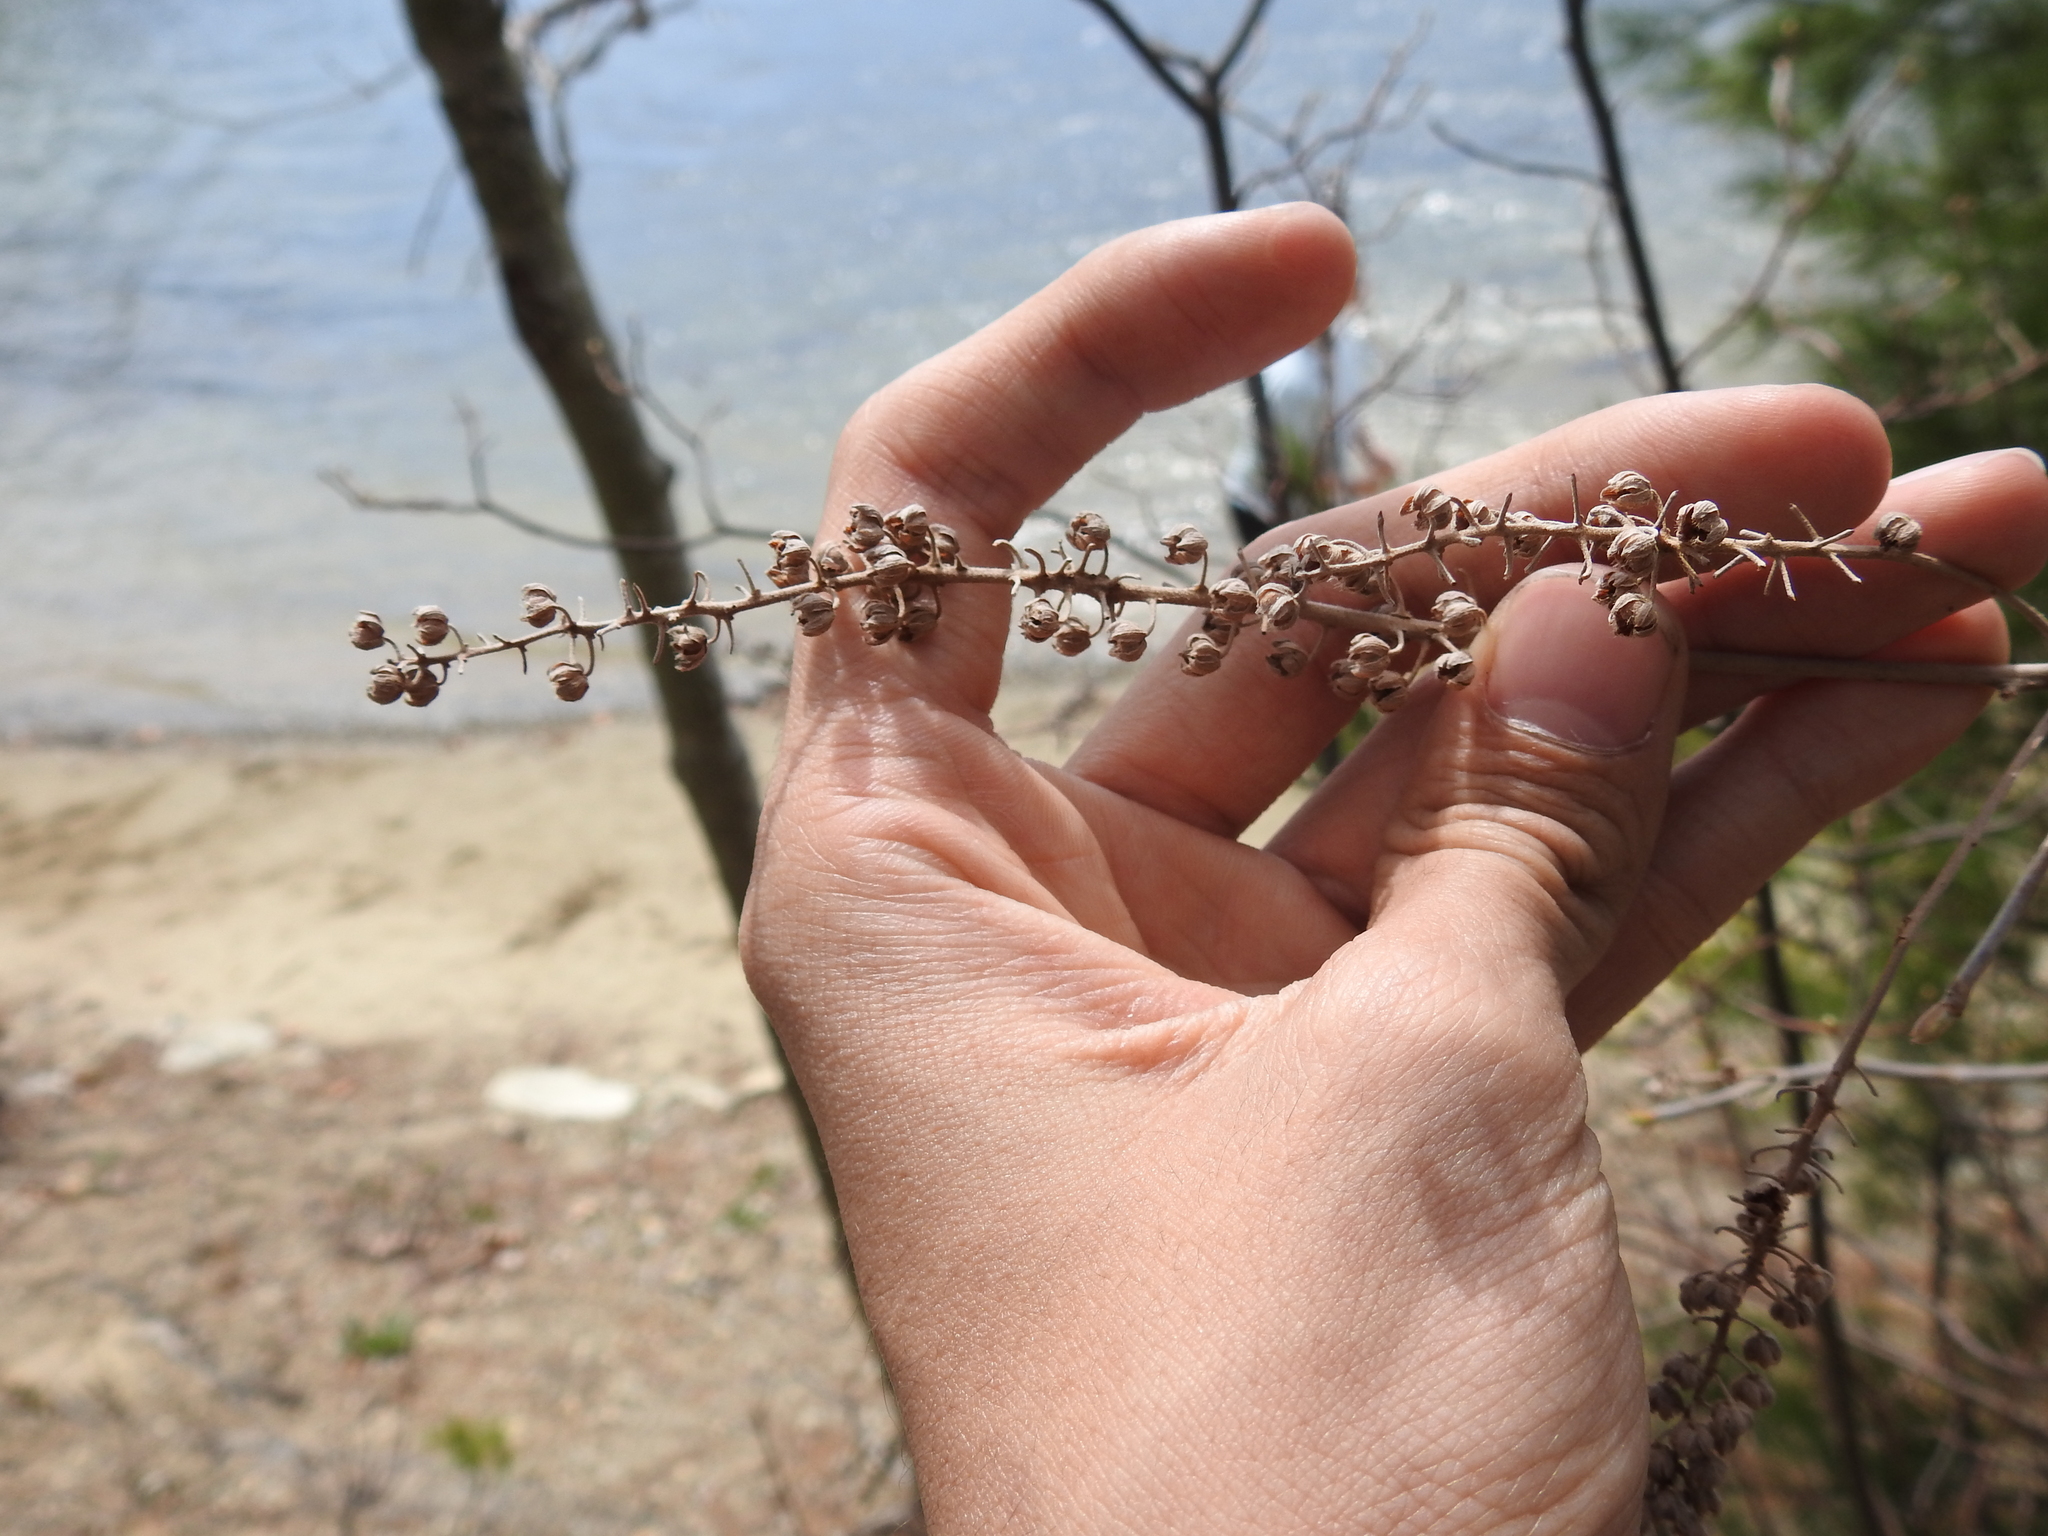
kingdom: Plantae
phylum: Tracheophyta
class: Magnoliopsida
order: Ericales
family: Clethraceae
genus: Clethra
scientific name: Clethra alnifolia
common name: Sweet pepperbush
